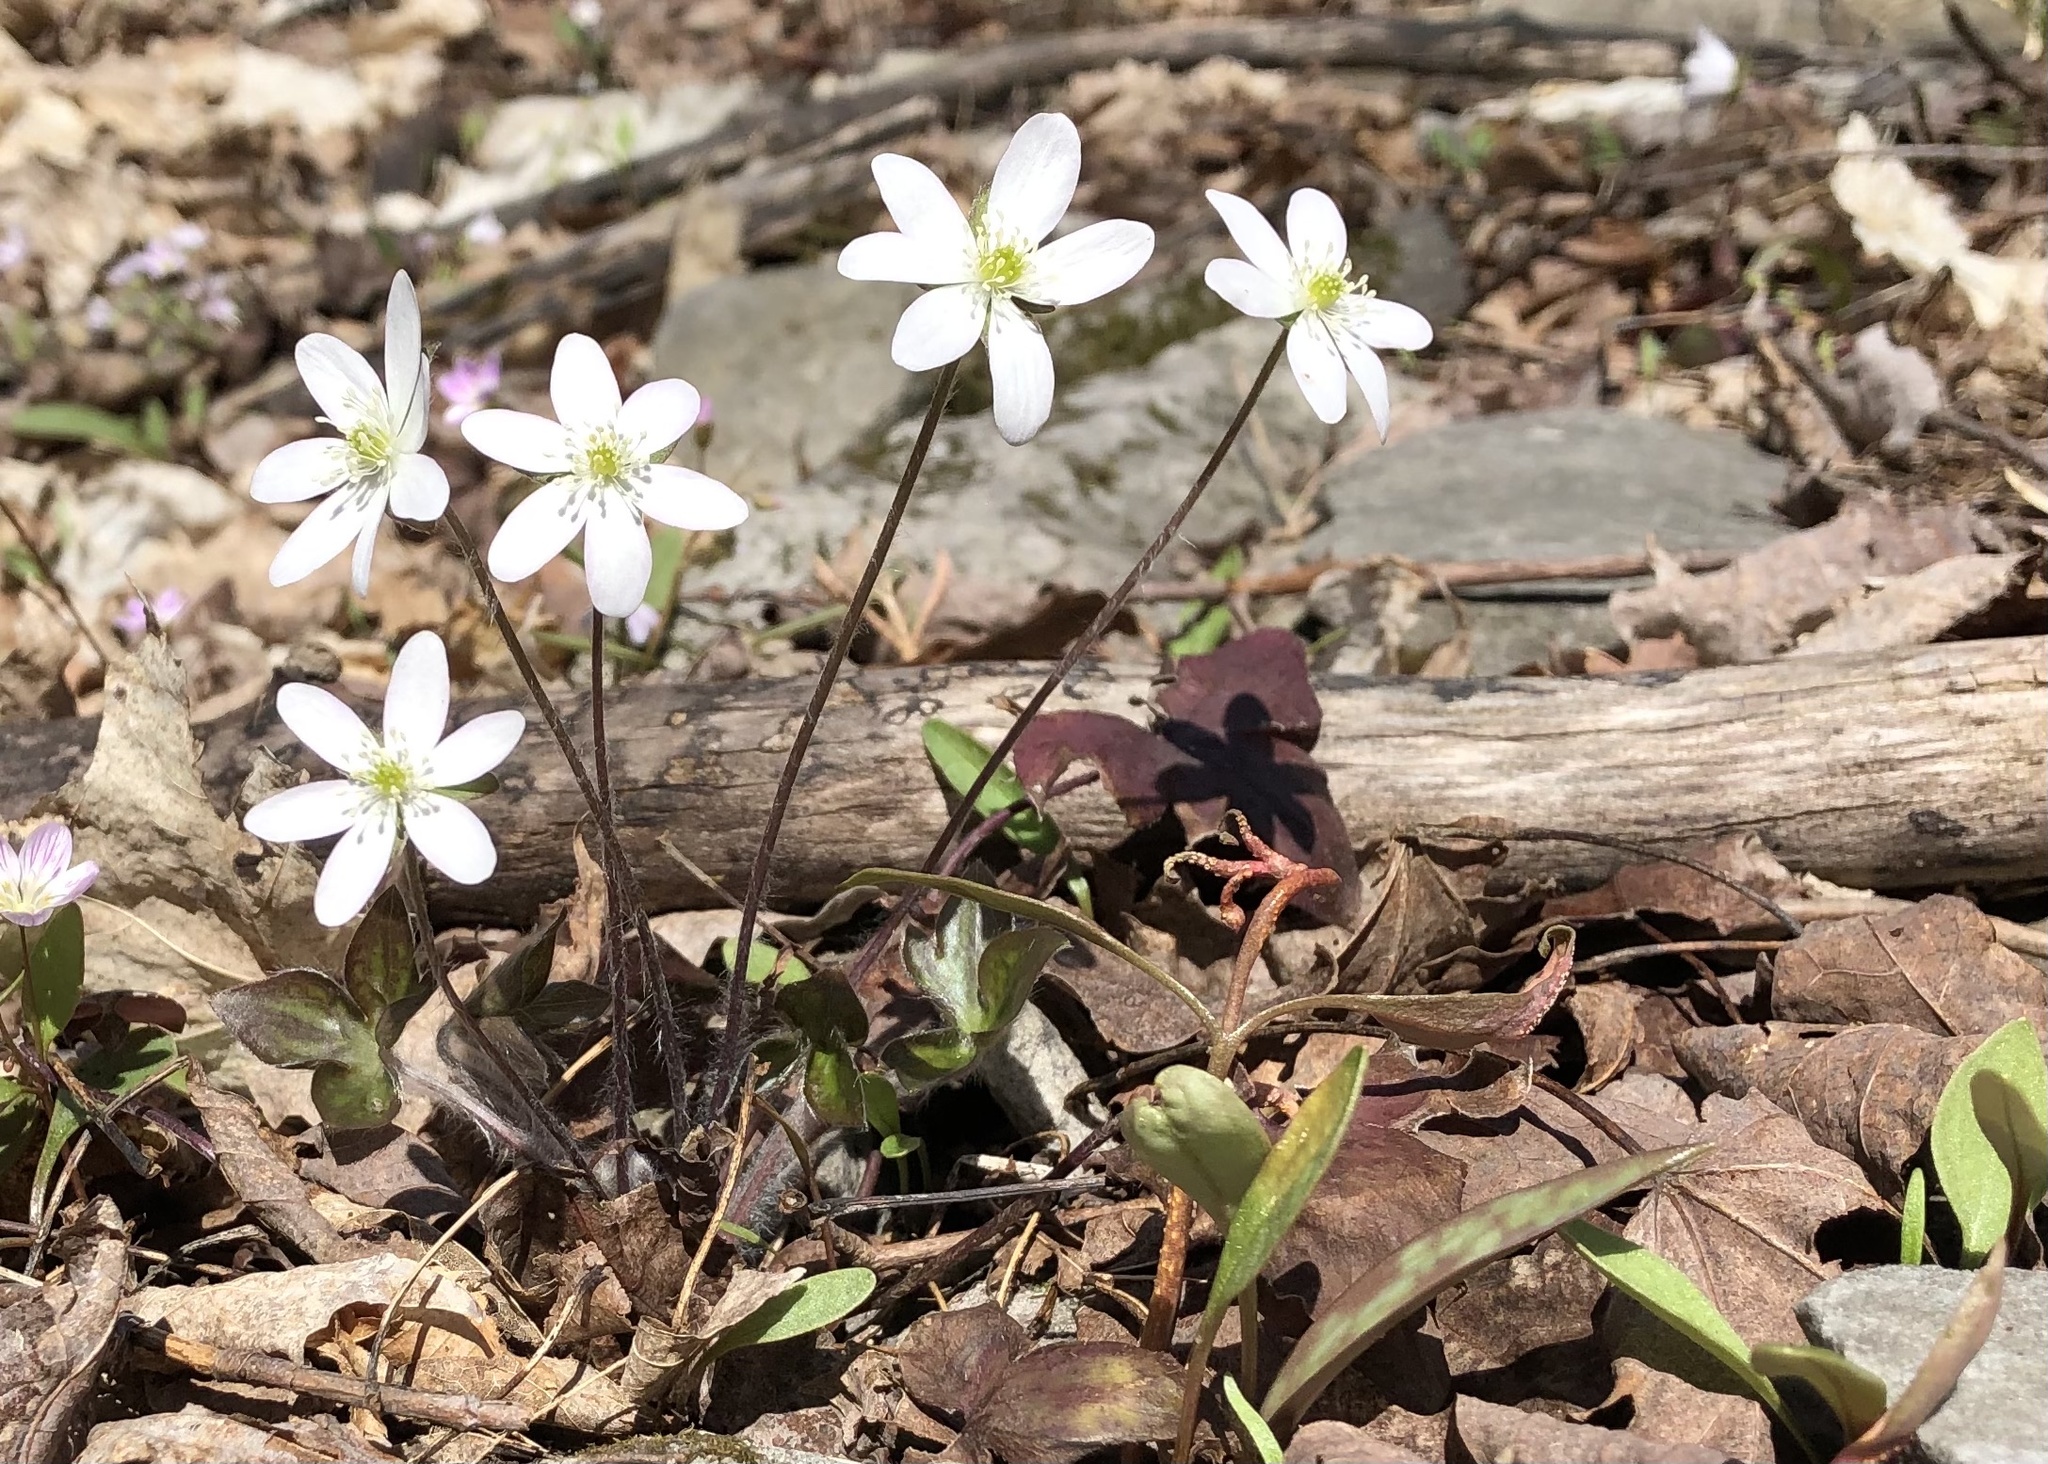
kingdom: Plantae
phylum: Tracheophyta
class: Magnoliopsida
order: Ranunculales
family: Ranunculaceae
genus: Hepatica
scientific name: Hepatica acutiloba
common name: Sharp-lobed hepatica
